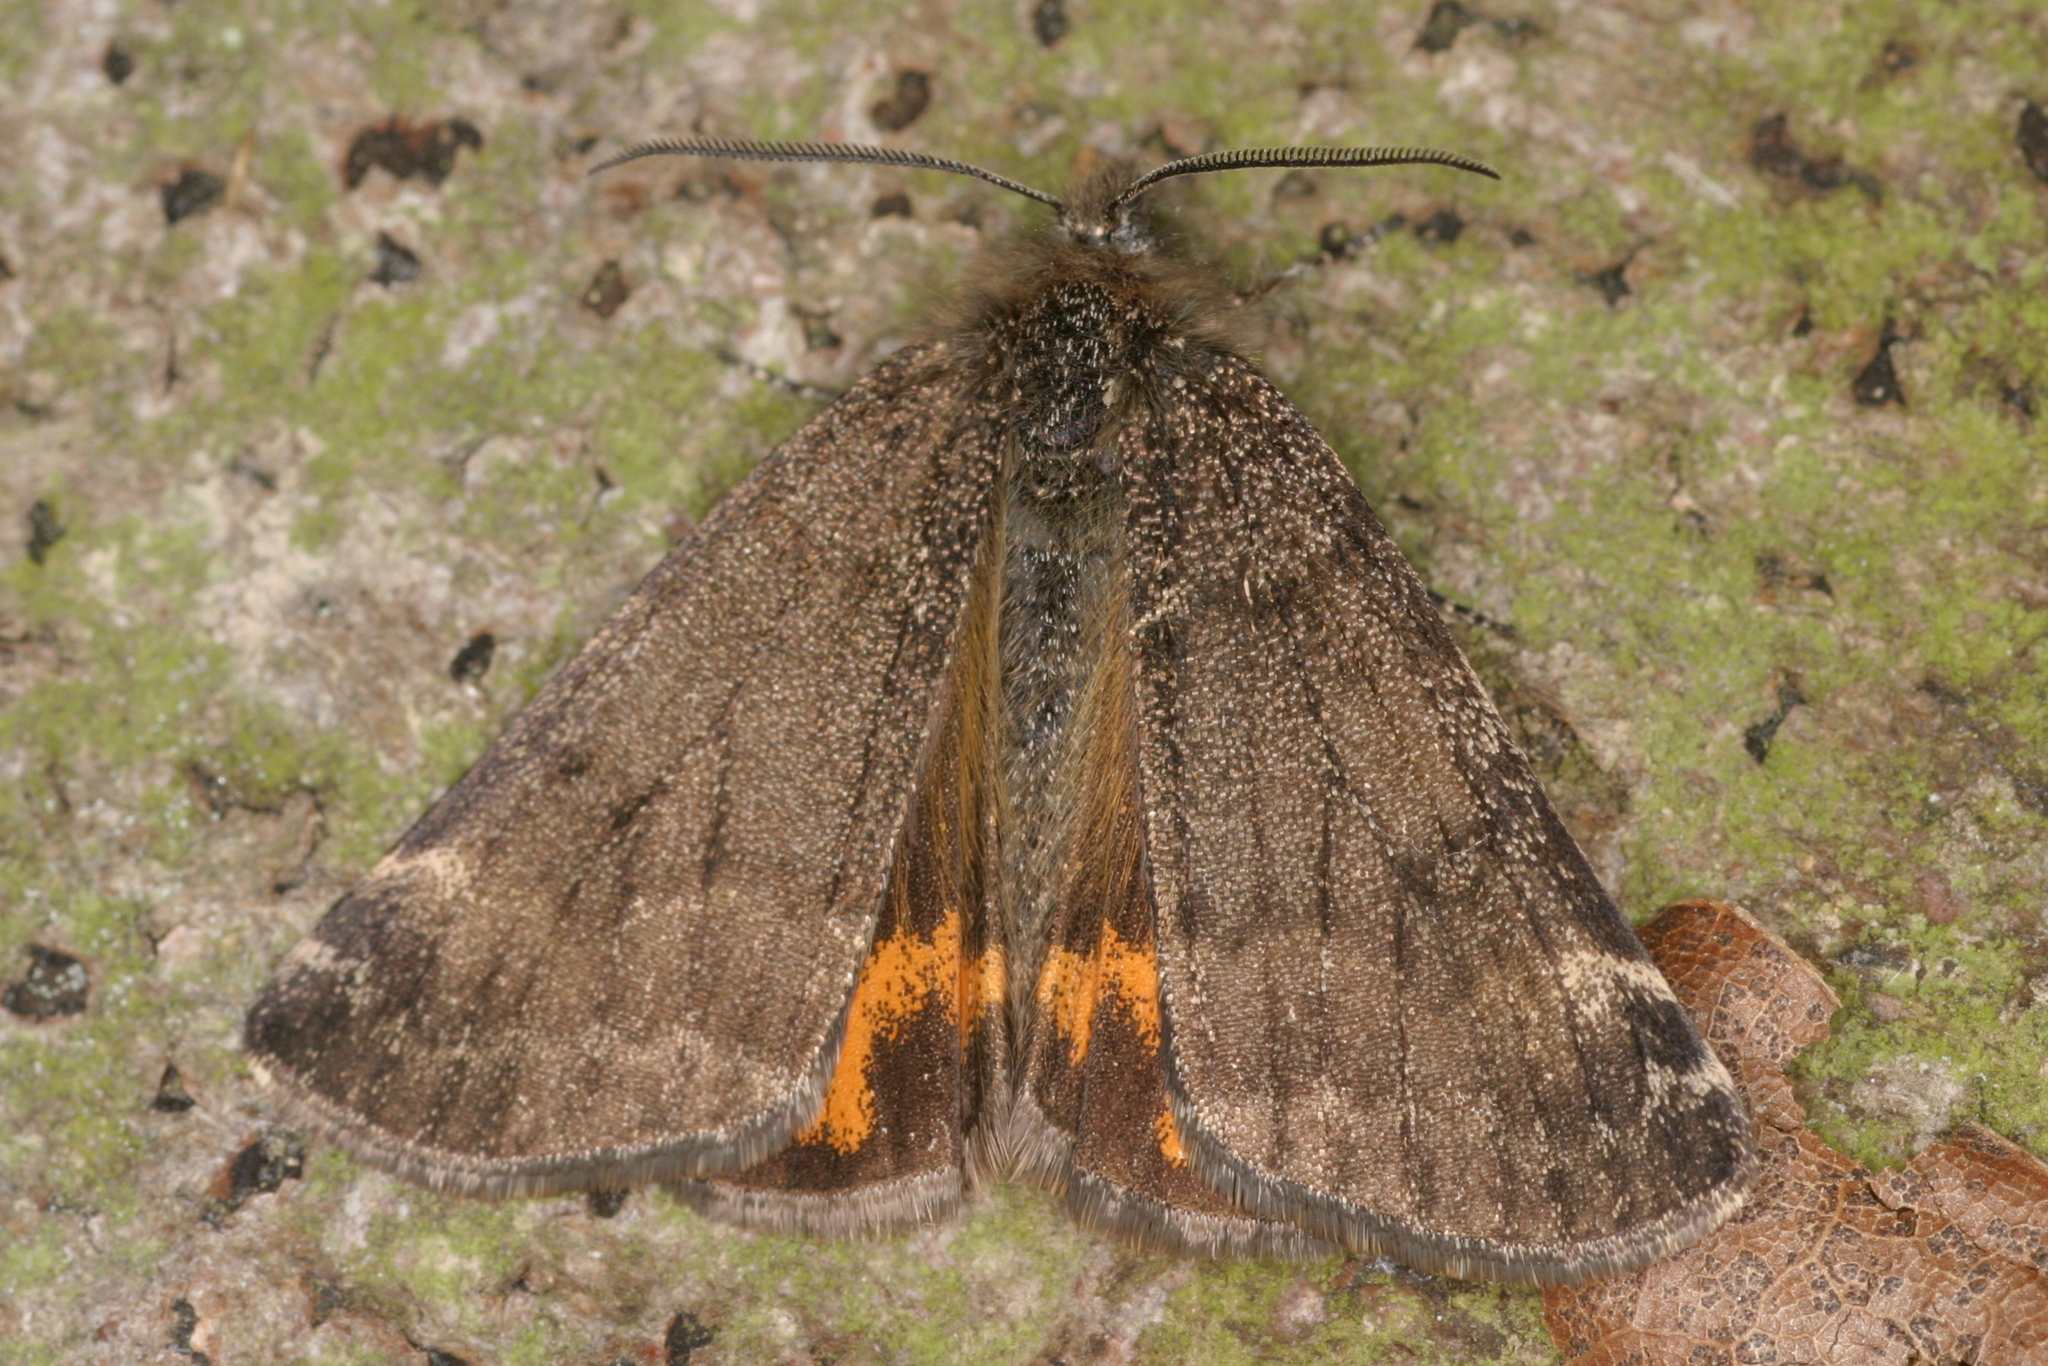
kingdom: Animalia
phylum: Arthropoda
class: Insecta
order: Lepidoptera
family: Geometridae
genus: Archiearis
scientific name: Archiearis notha
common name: Light orange underwing
